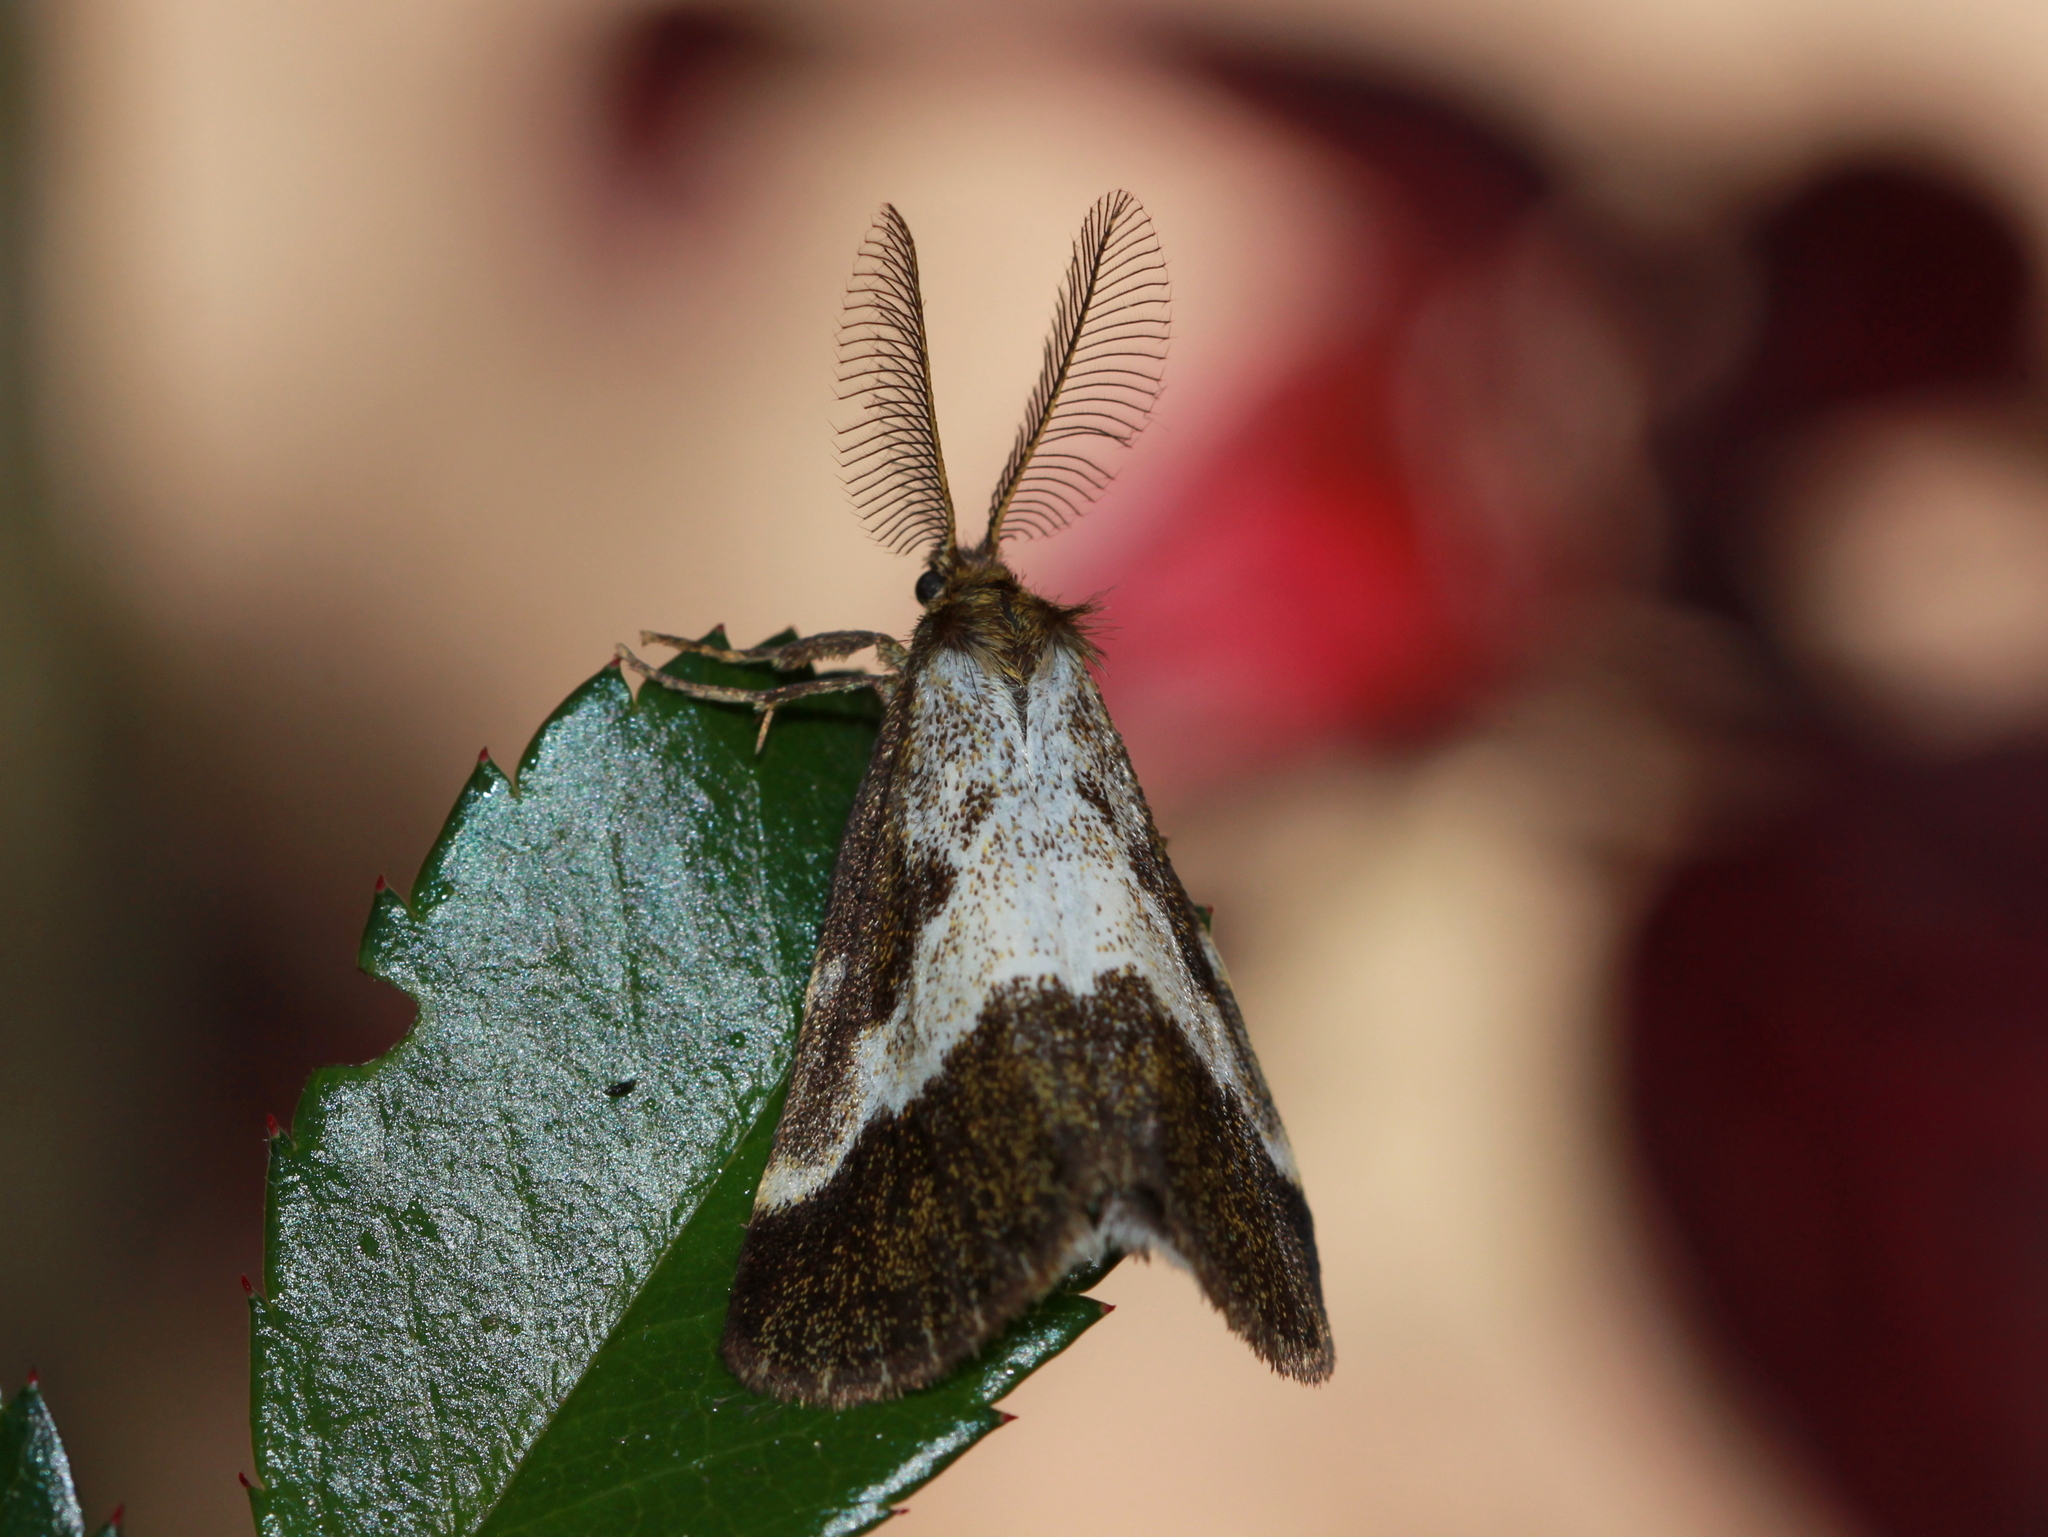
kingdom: Animalia
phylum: Arthropoda
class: Insecta
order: Lepidoptera
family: Erebidae
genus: Aroa
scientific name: Aroa cambelli
